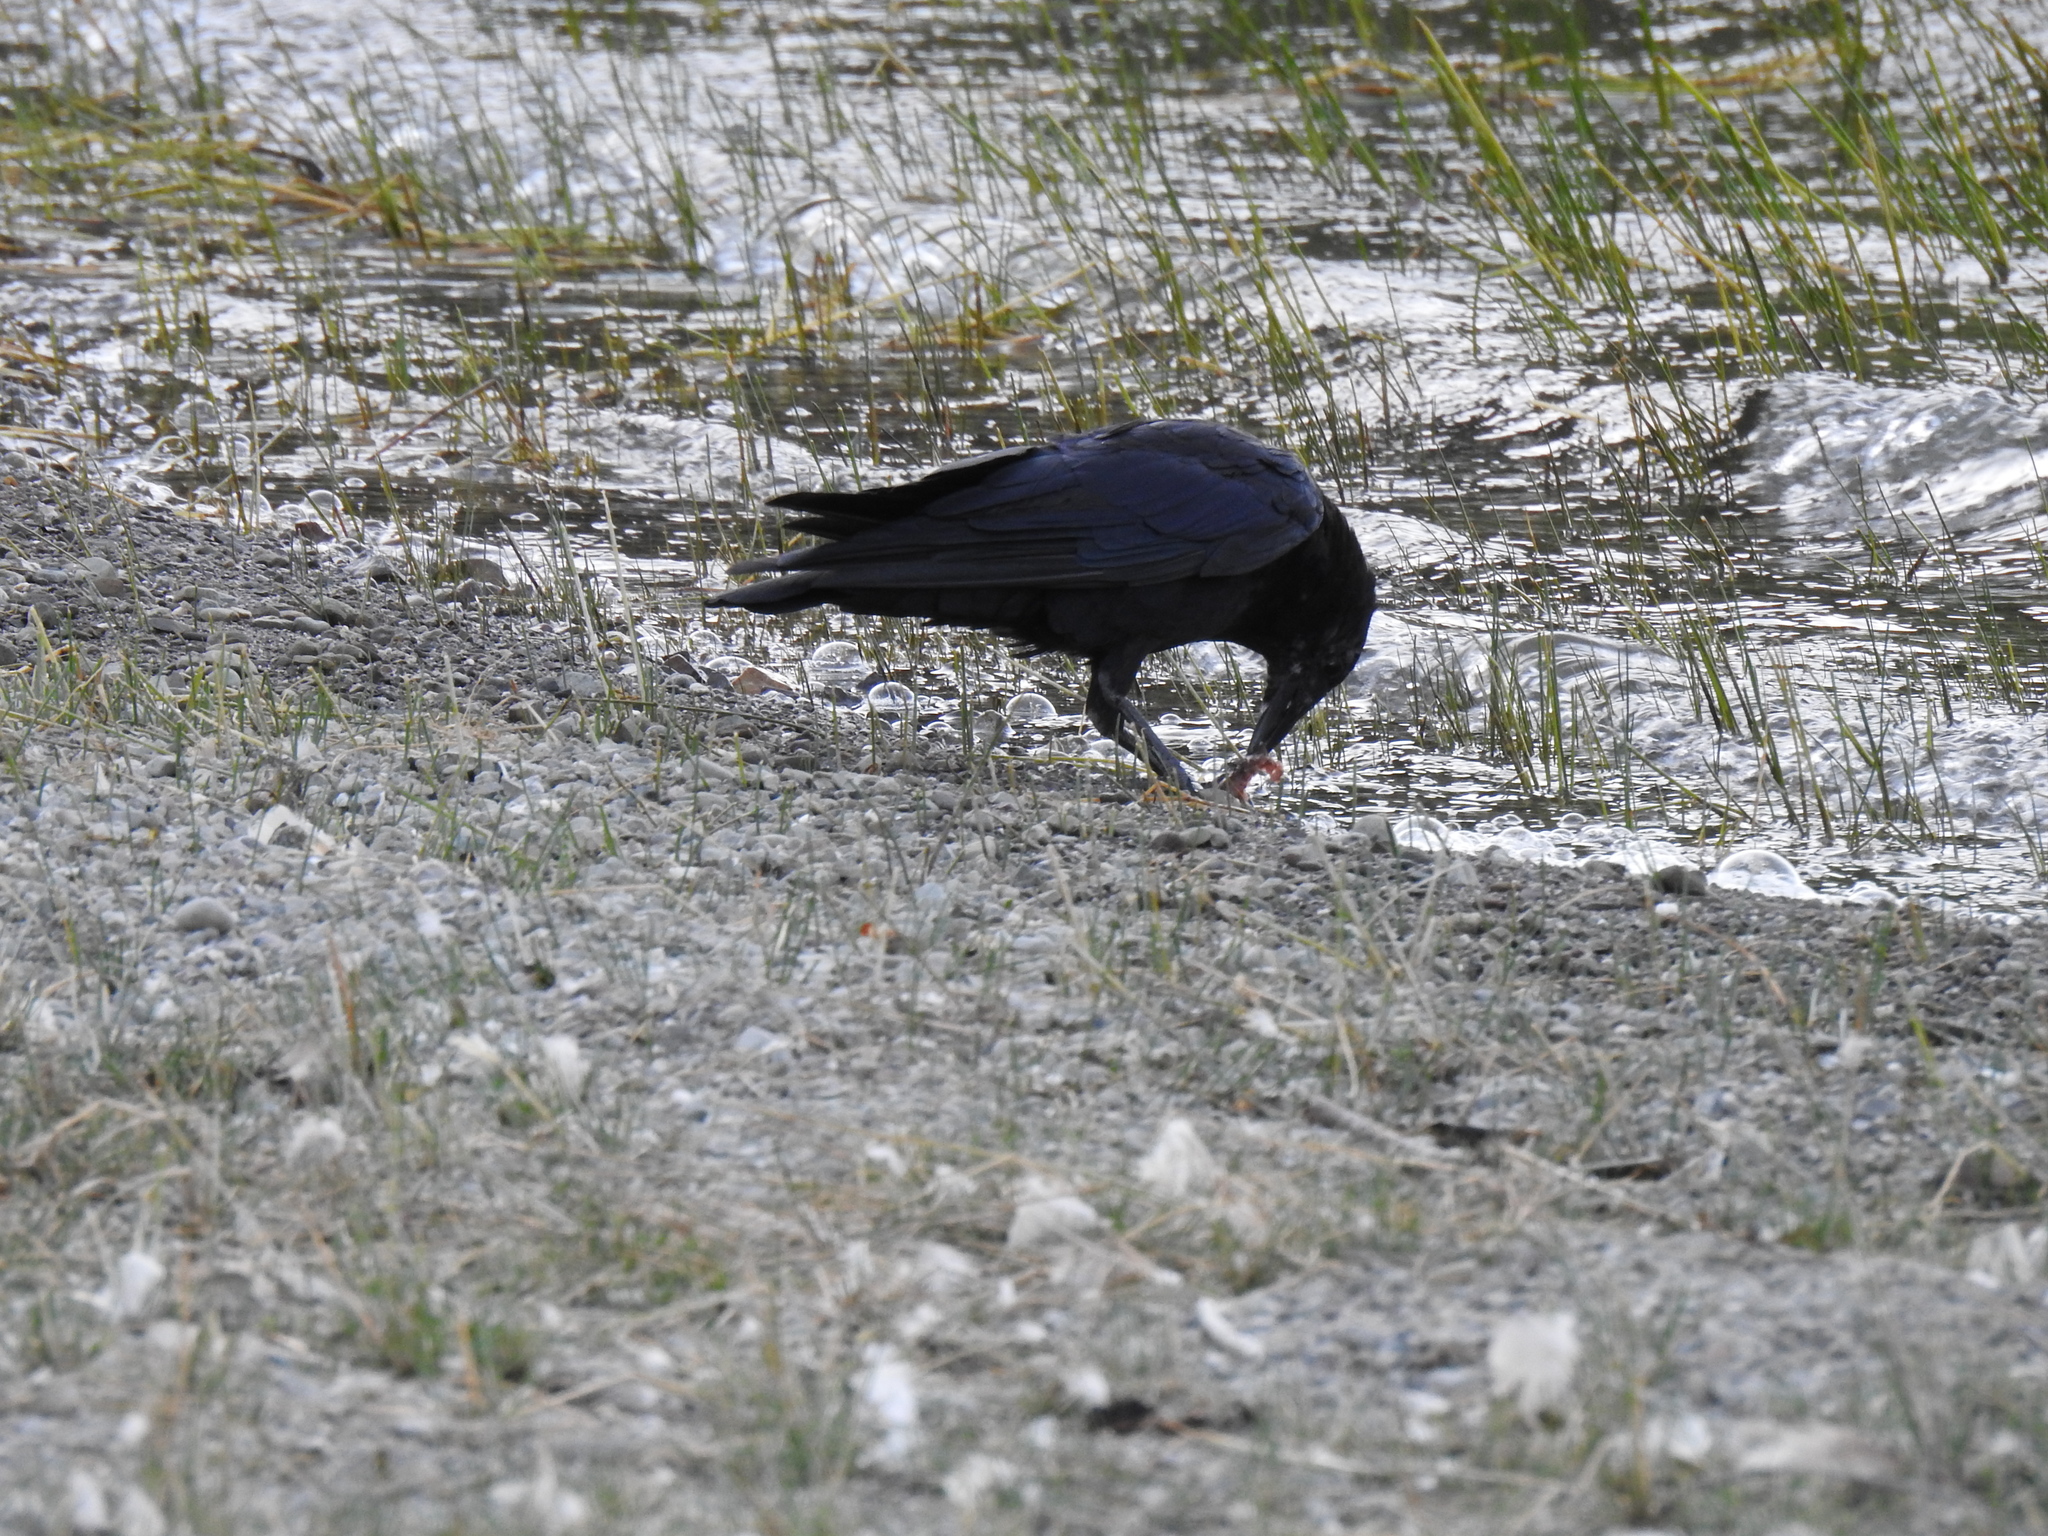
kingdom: Animalia
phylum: Chordata
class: Aves
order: Passeriformes
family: Corvidae
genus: Corvus
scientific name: Corvus brachyrhynchos
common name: American crow
